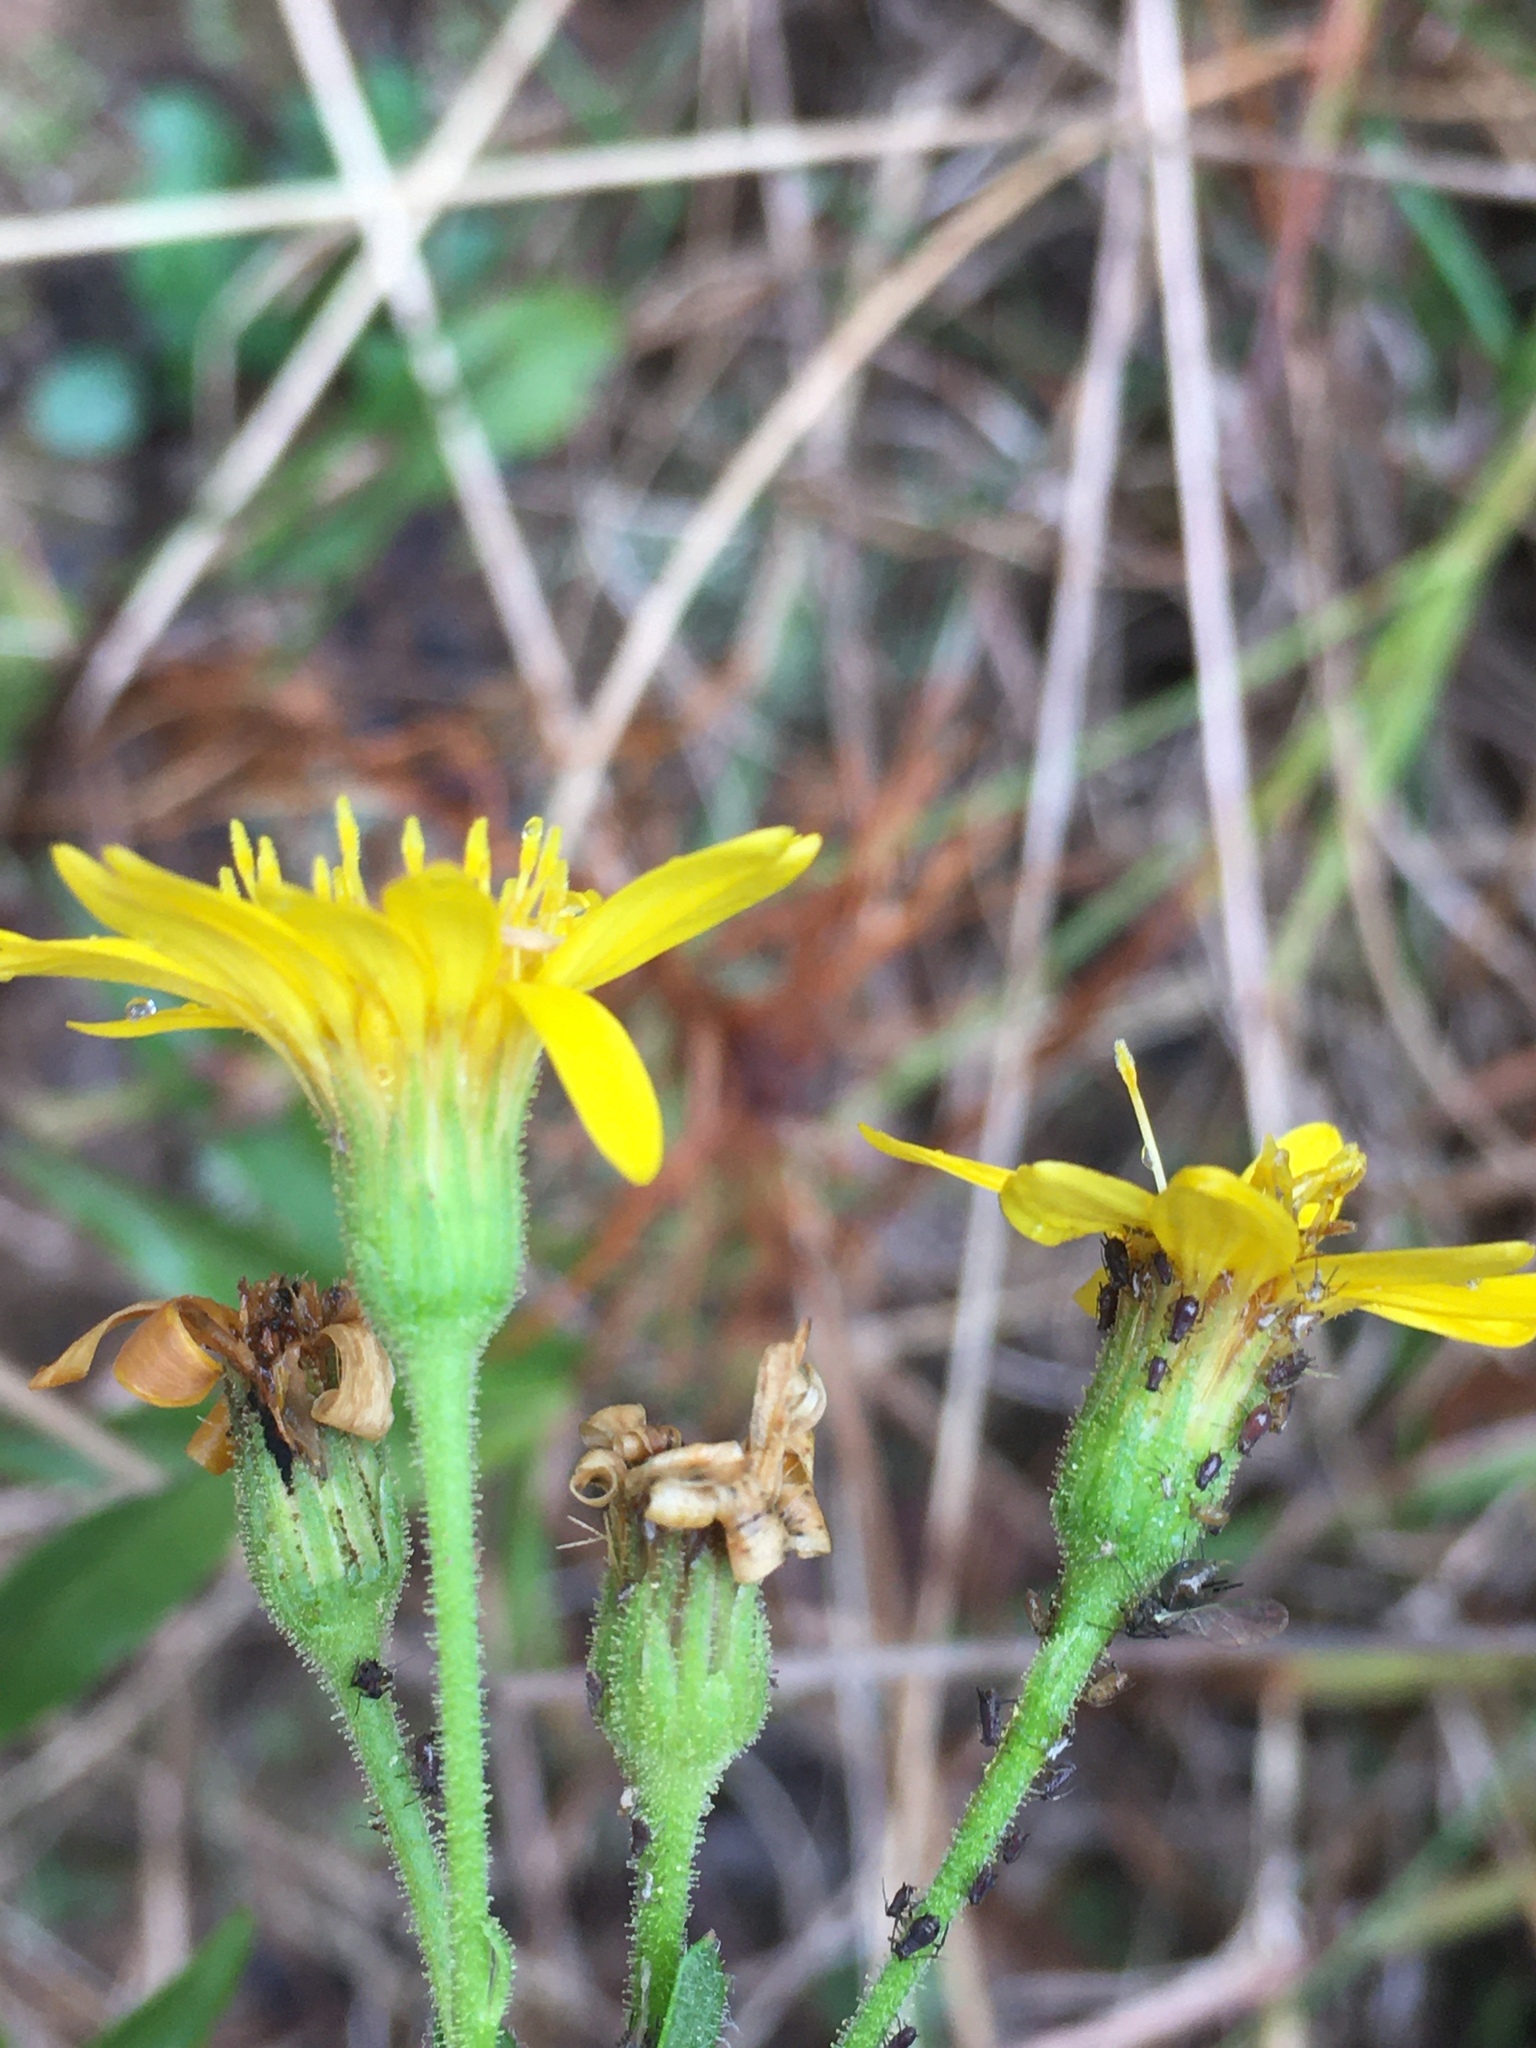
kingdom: Plantae
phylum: Tracheophyta
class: Magnoliopsida
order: Asterales
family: Asteraceae
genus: Chrysopsis
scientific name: Chrysopsis mariana
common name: Maryland golden-aster
